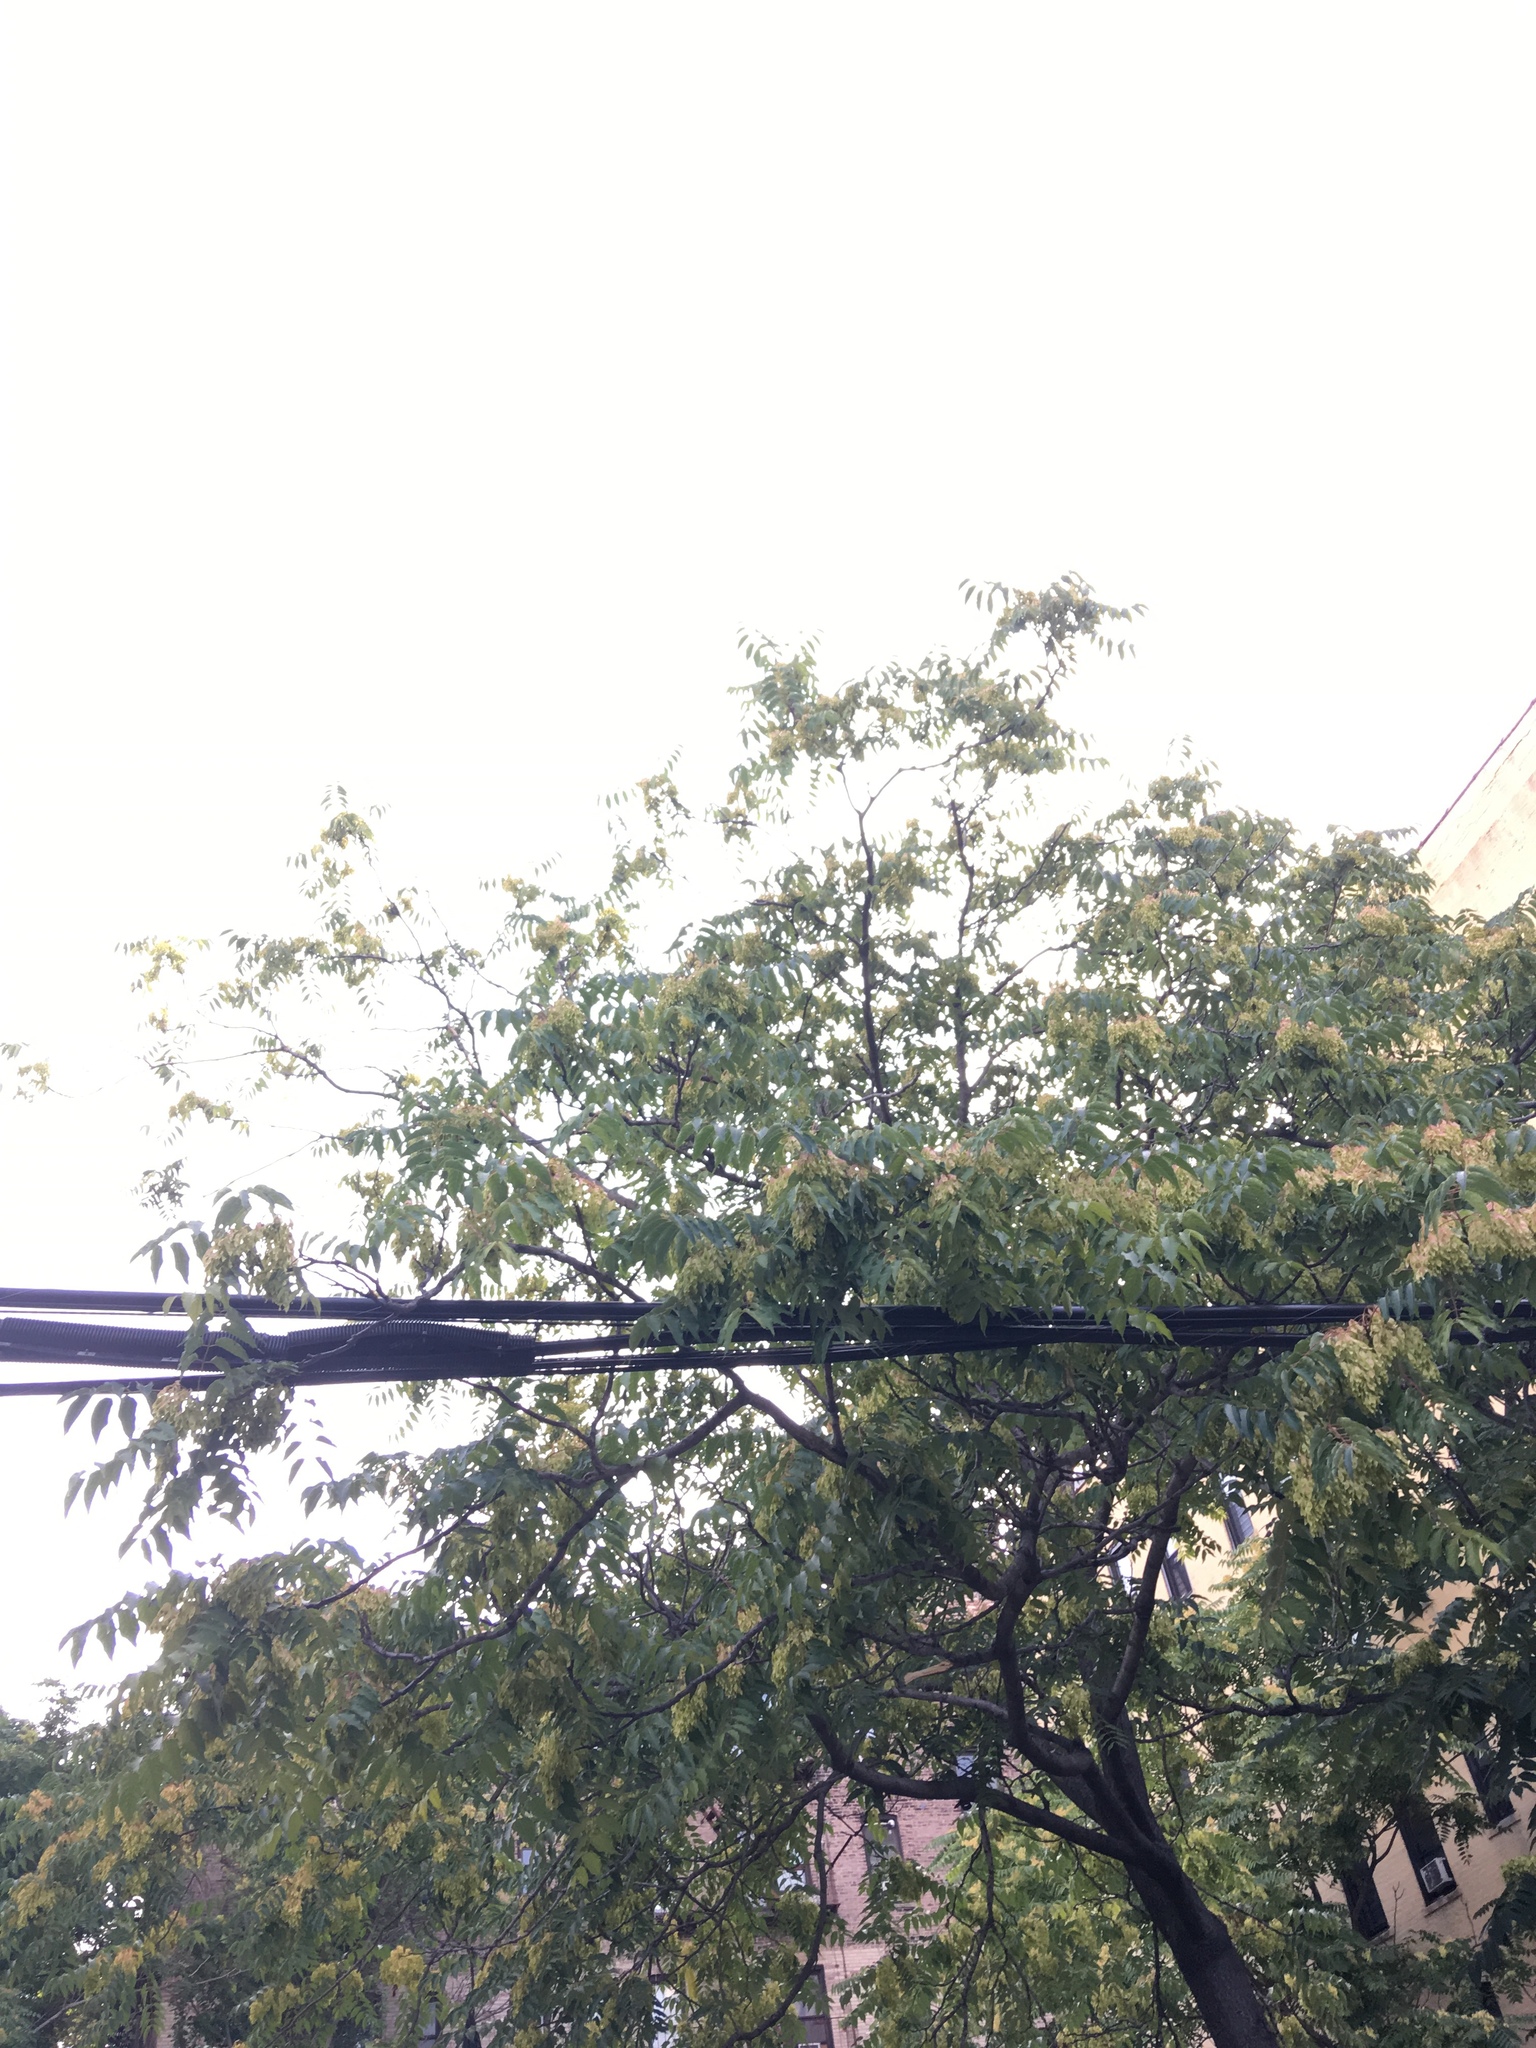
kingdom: Plantae
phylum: Tracheophyta
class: Magnoliopsida
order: Sapindales
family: Simaroubaceae
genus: Ailanthus
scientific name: Ailanthus altissima
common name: Tree-of-heaven
